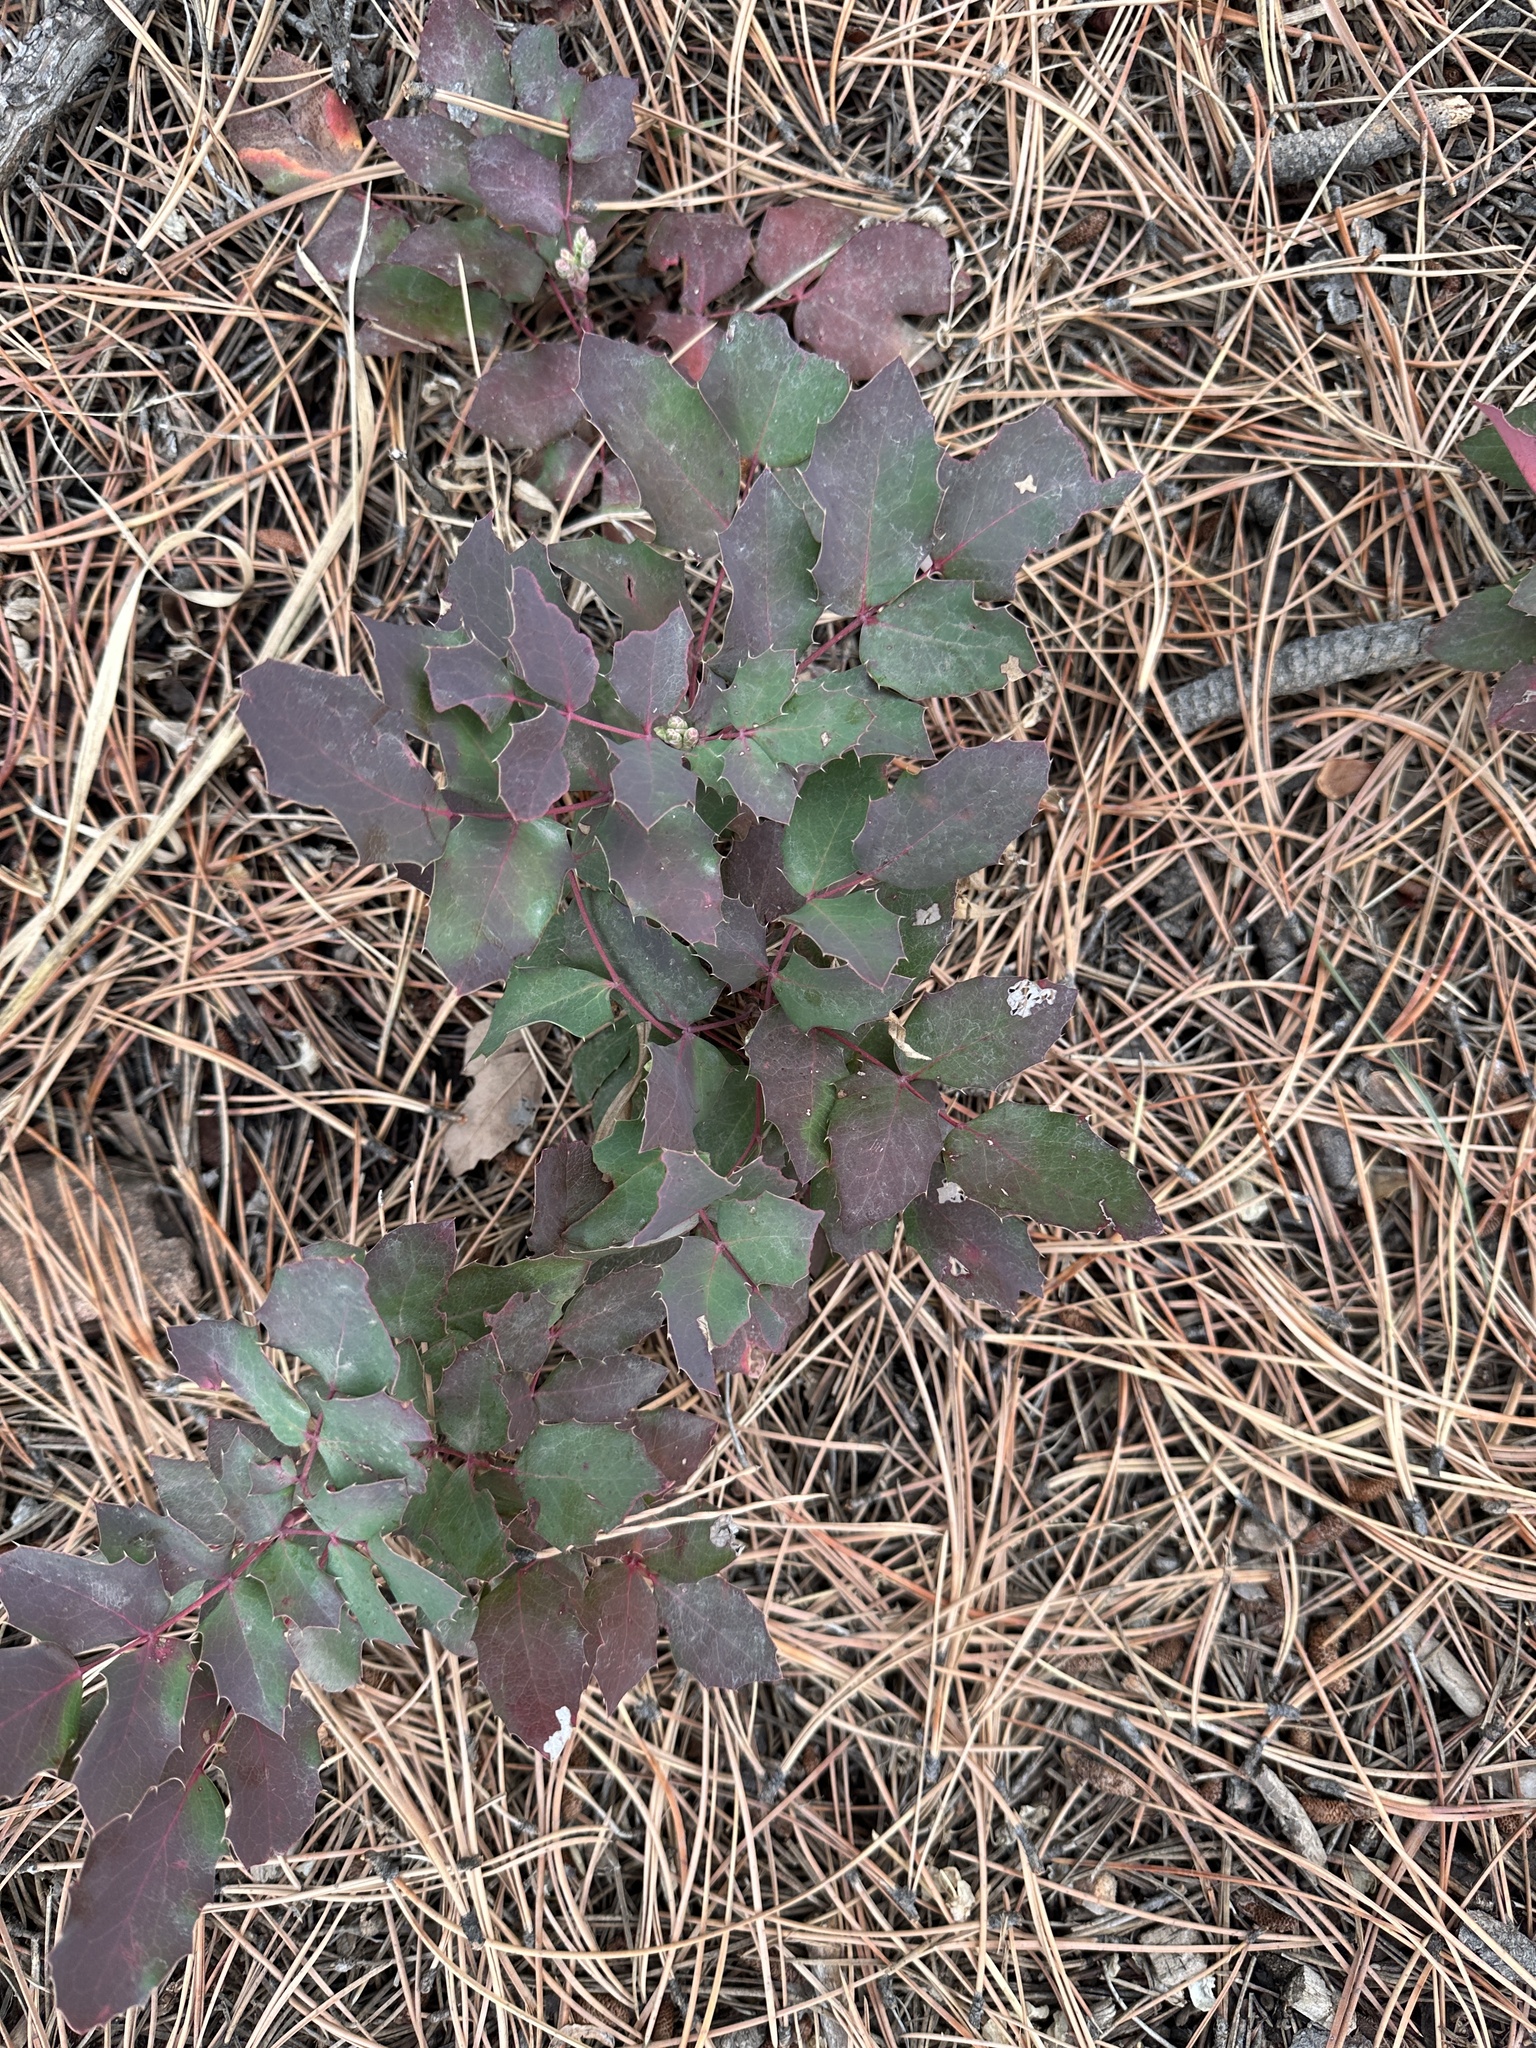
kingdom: Plantae
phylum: Tracheophyta
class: Magnoliopsida
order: Ranunculales
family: Berberidaceae
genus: Mahonia
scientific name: Mahonia repens
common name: Creeping oregon-grape
